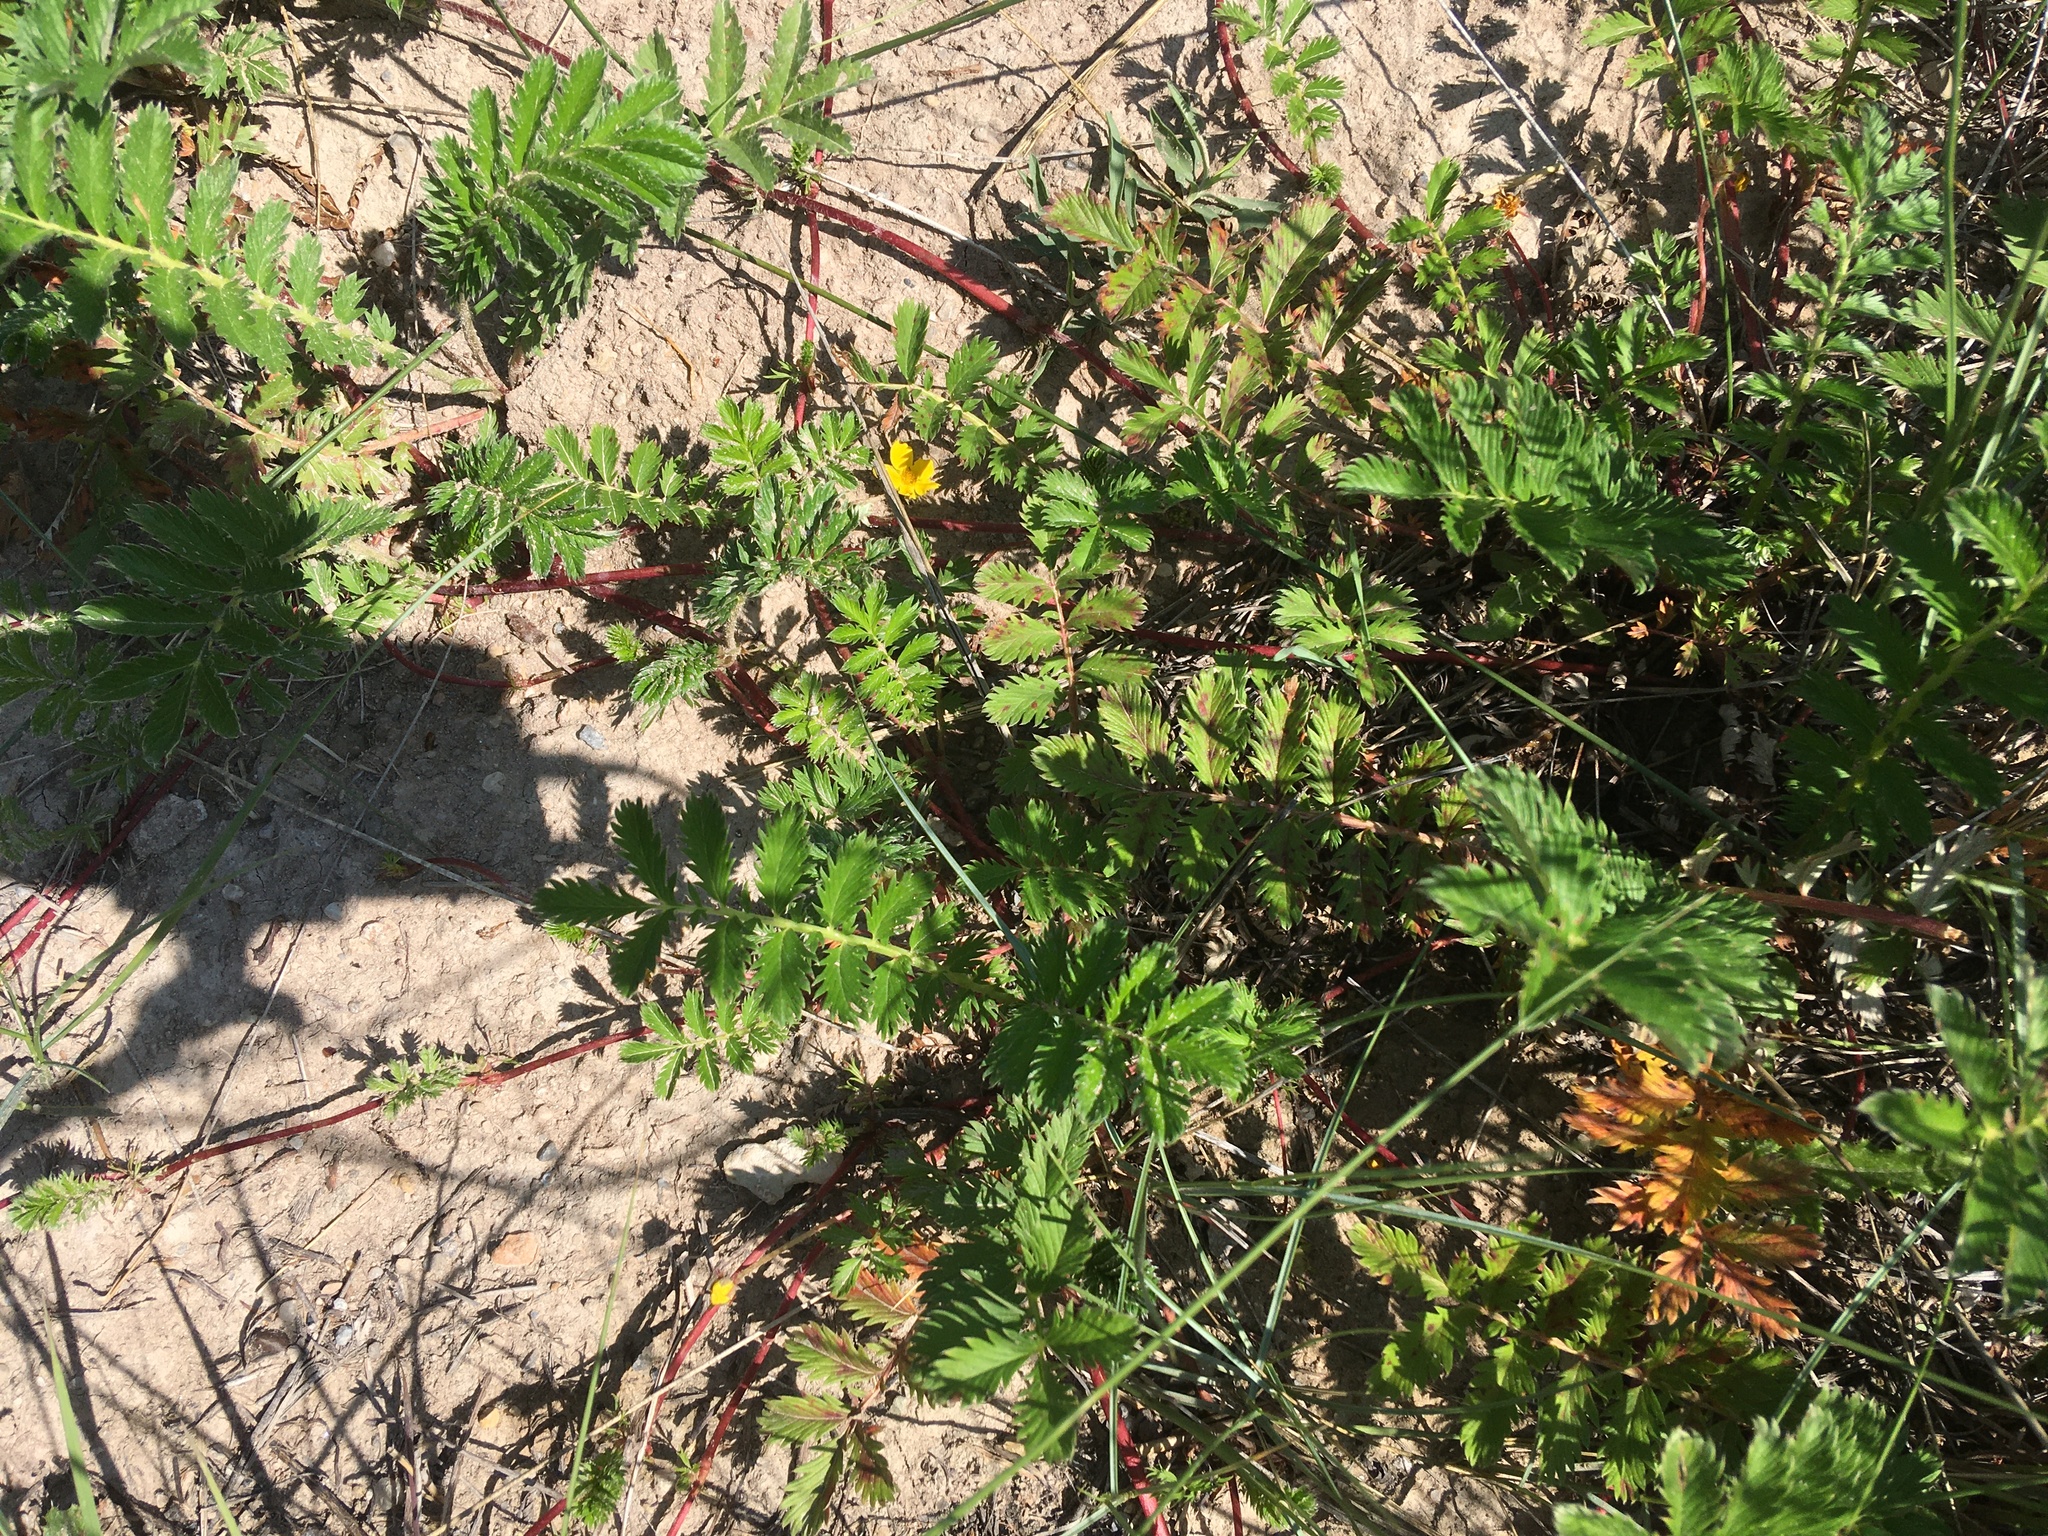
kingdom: Plantae
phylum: Tracheophyta
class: Magnoliopsida
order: Rosales
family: Rosaceae
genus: Argentina
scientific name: Argentina anserina
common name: Common silverweed
